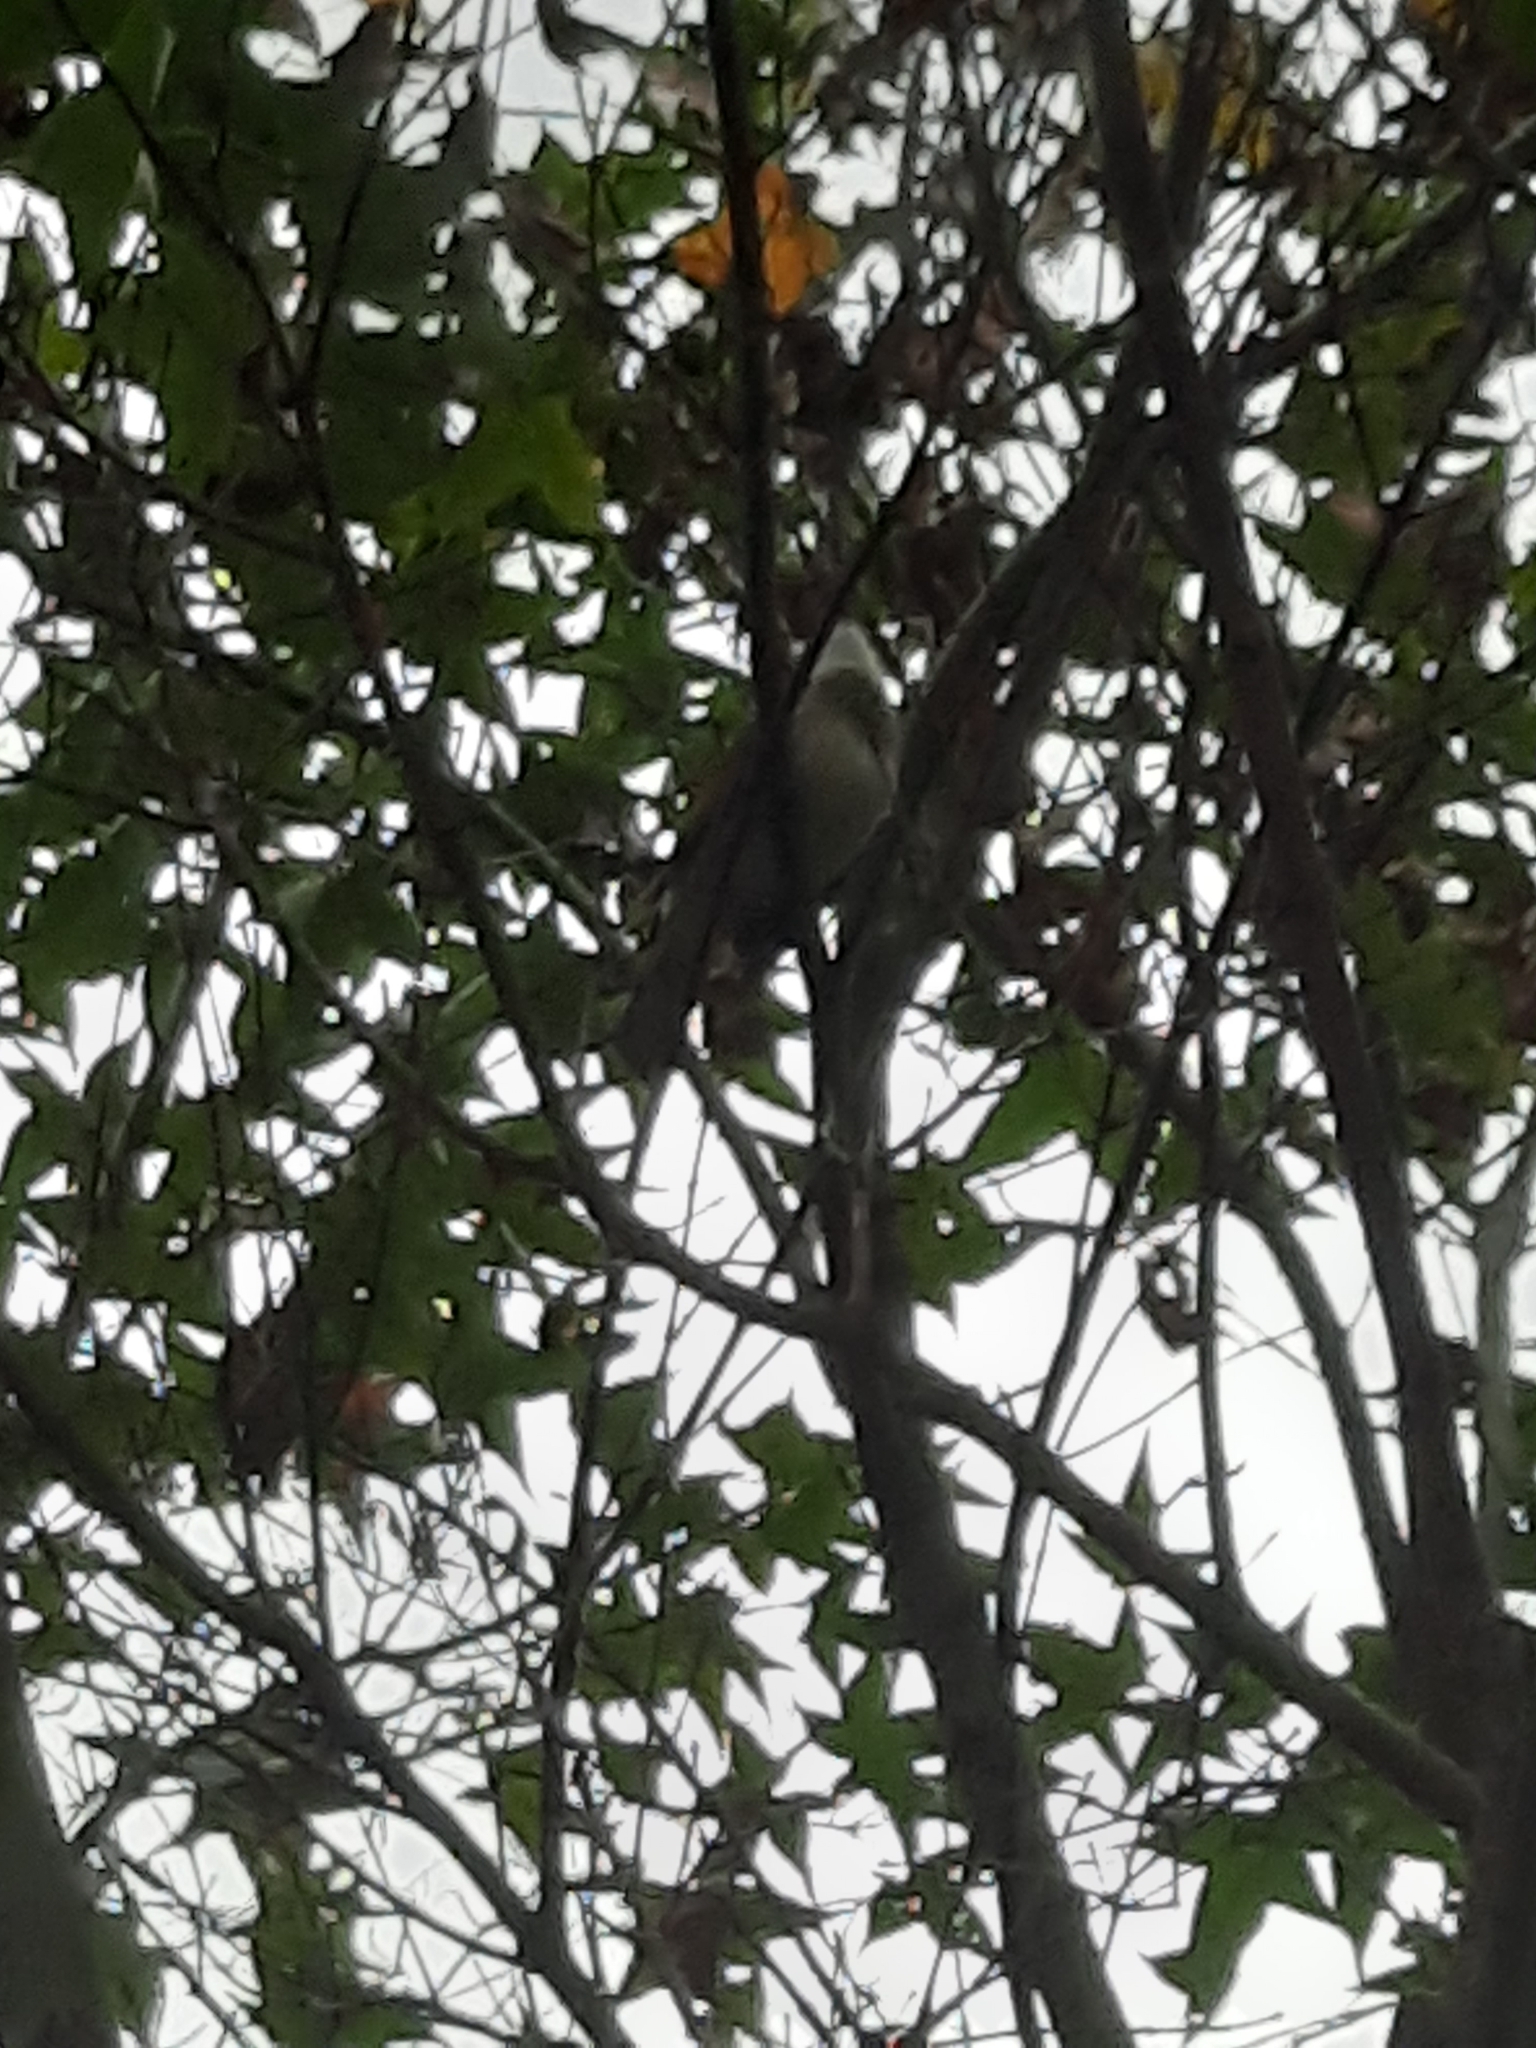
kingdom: Animalia
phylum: Chordata
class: Aves
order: Passeriformes
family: Pycnonotidae
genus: Pycnonotus
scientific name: Pycnonotus sinensis
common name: Light-vented bulbul
